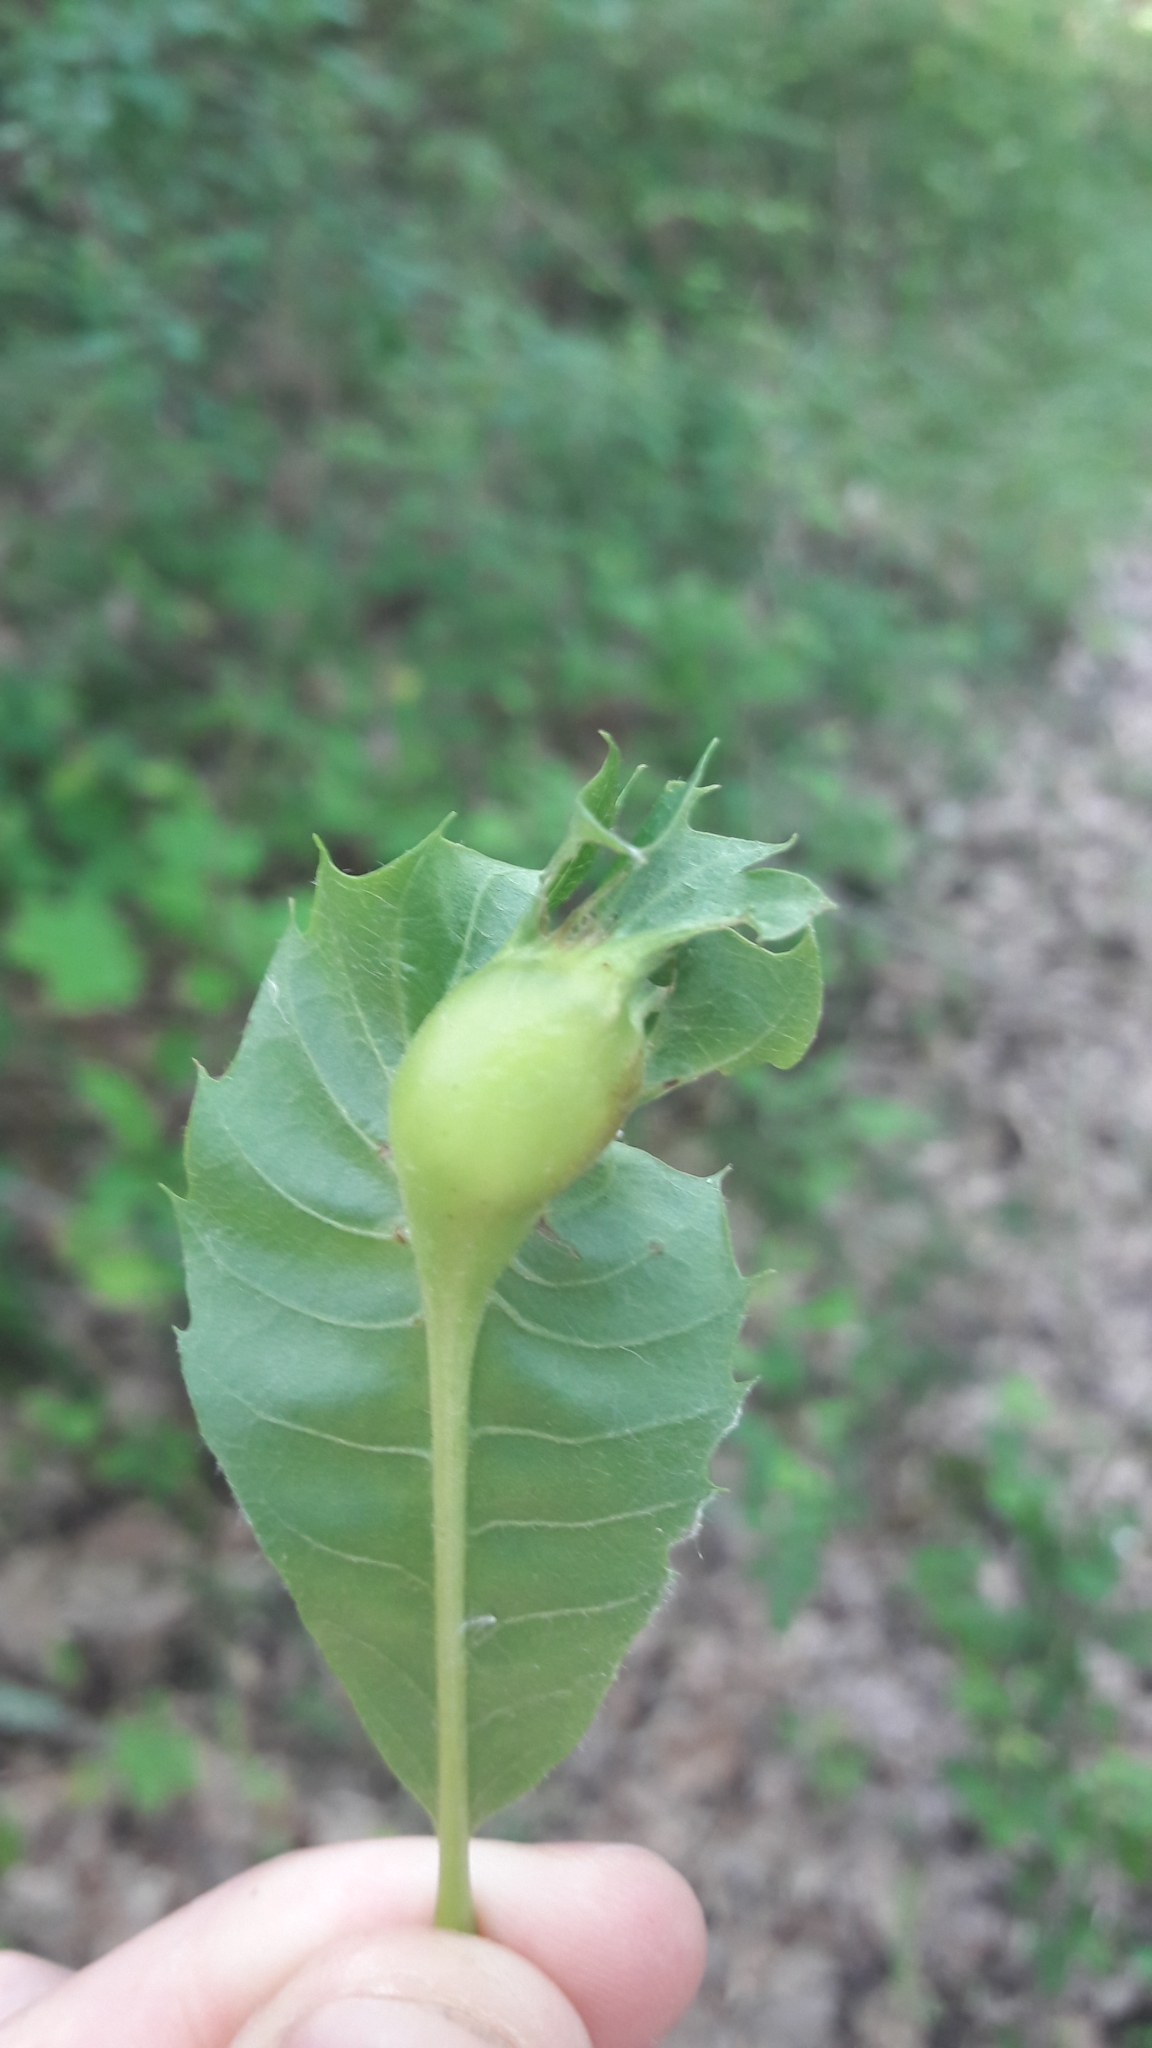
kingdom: Animalia
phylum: Arthropoda
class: Insecta
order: Hymenoptera
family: Cynipidae
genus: Dryocosmus
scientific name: Dryocosmus kuriphilus
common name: Asian chestnut gall wasp
